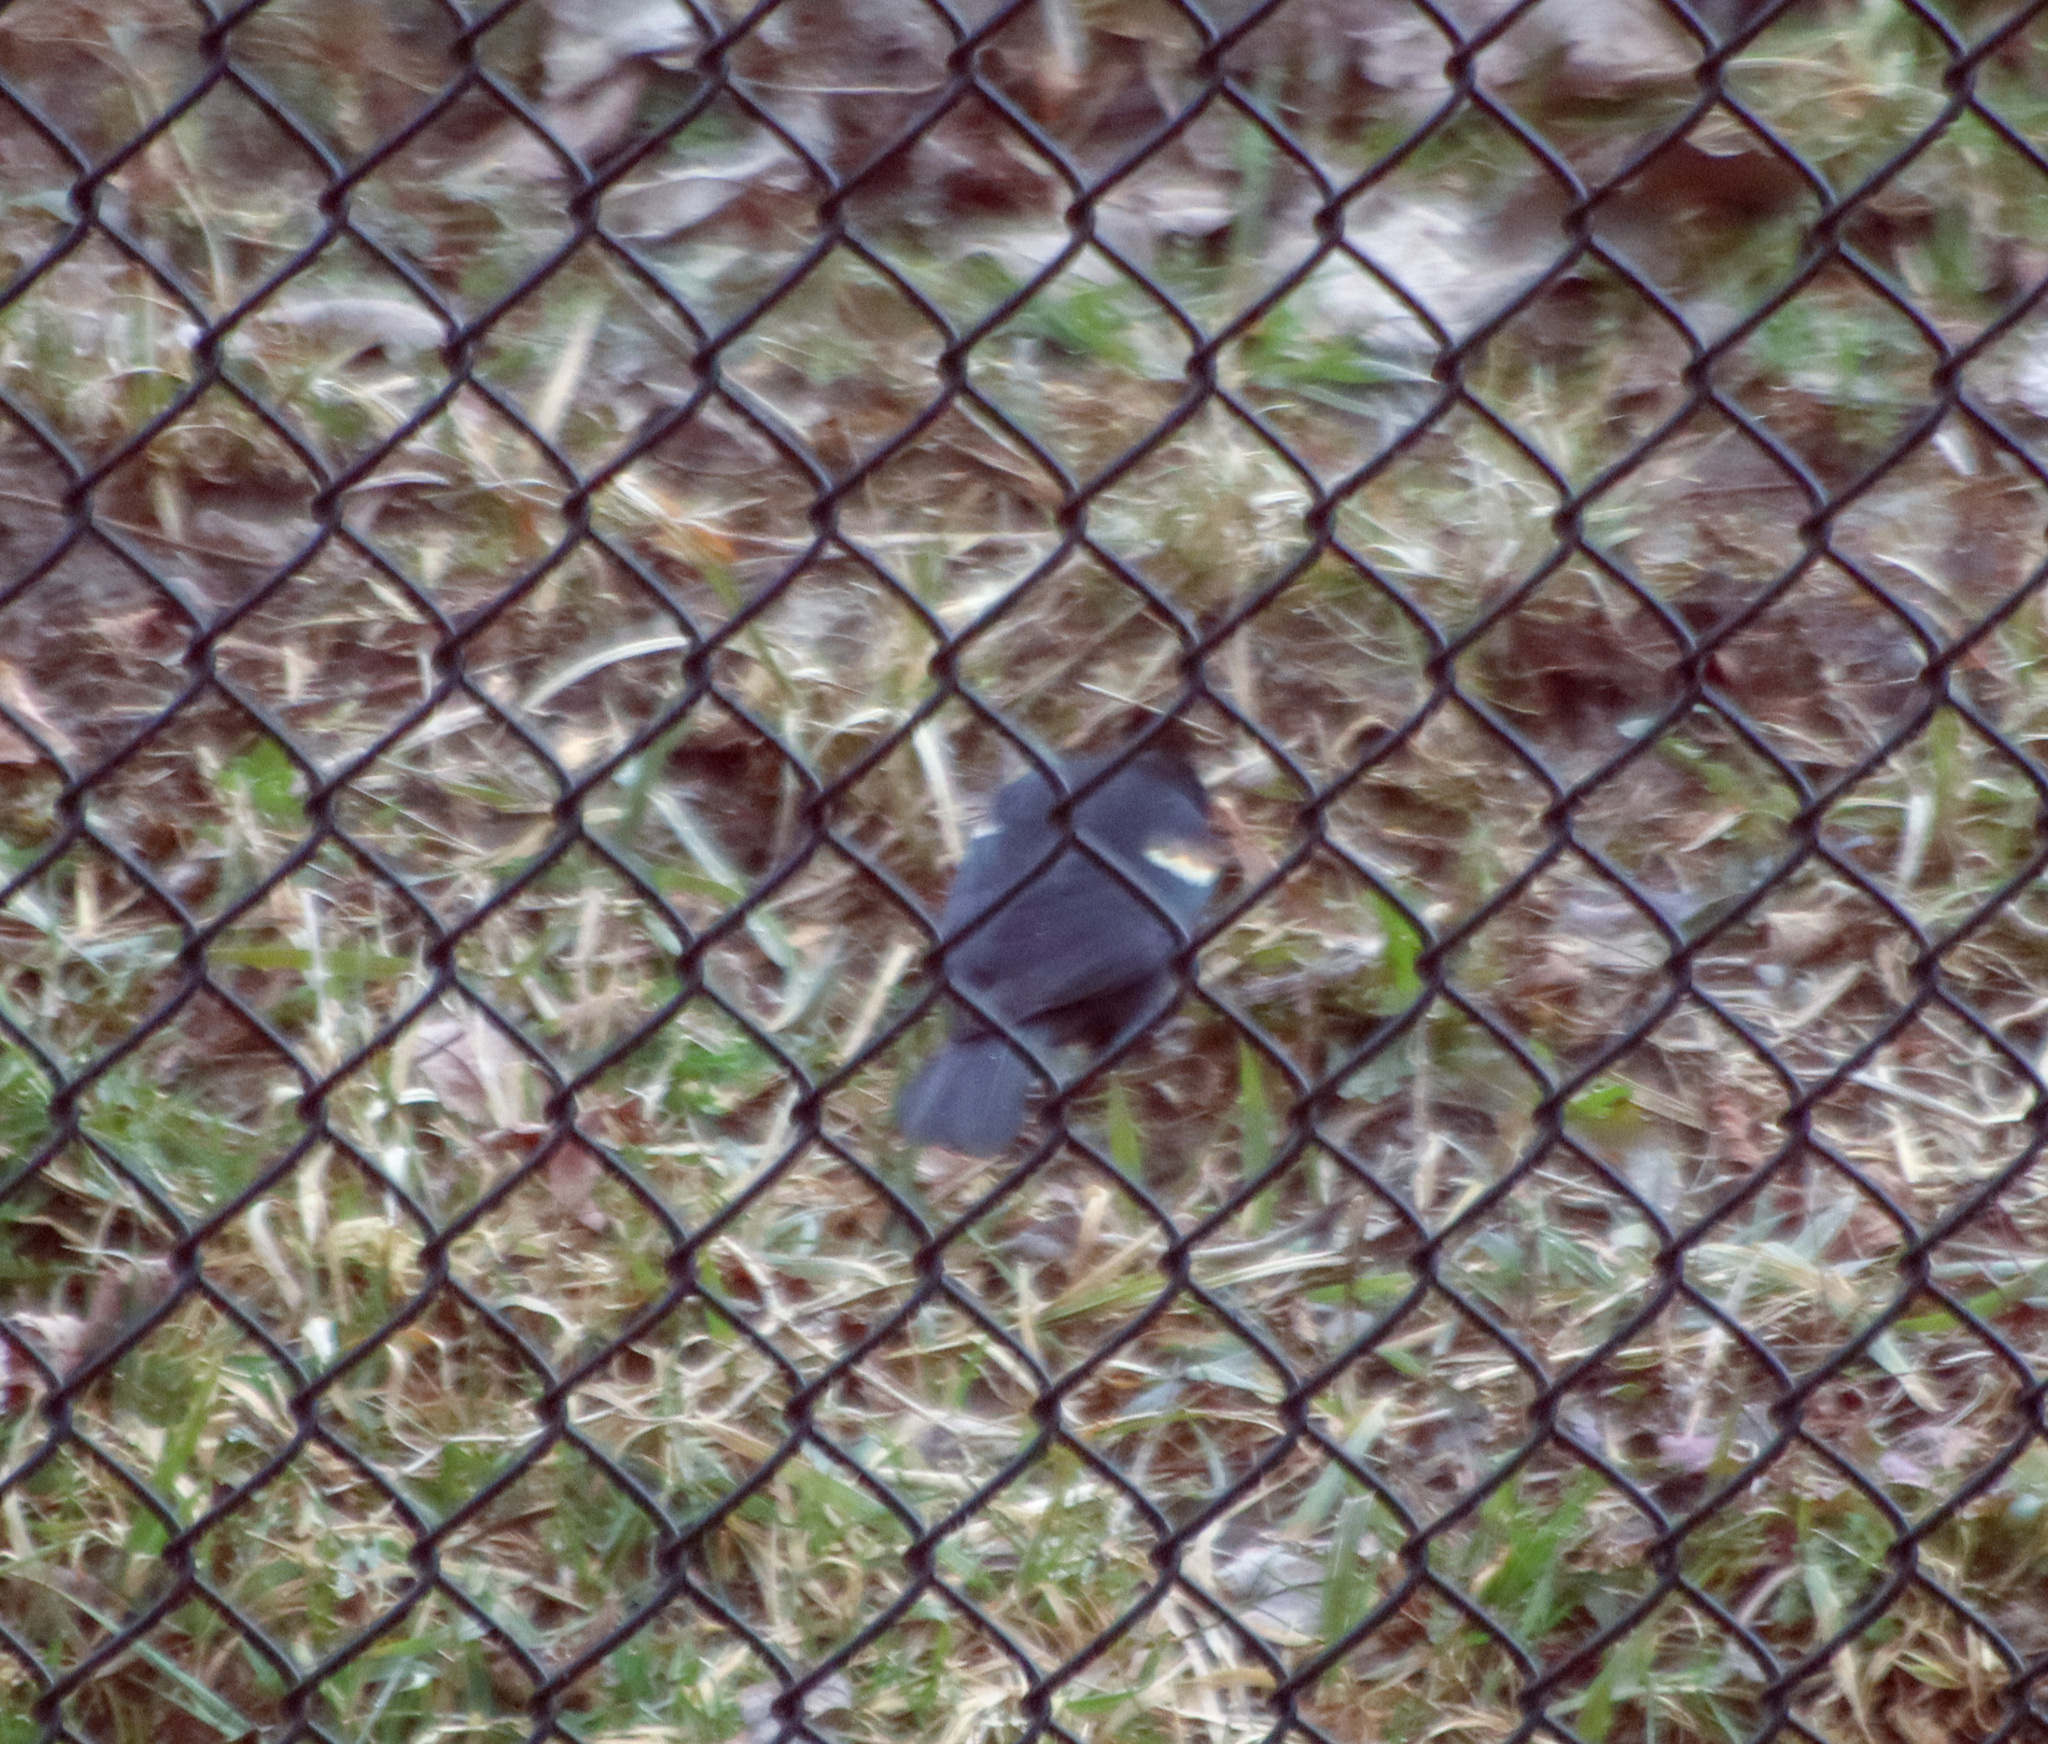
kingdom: Animalia
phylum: Chordata
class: Aves
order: Passeriformes
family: Icteridae
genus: Agelaius
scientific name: Agelaius phoeniceus
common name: Red-winged blackbird
